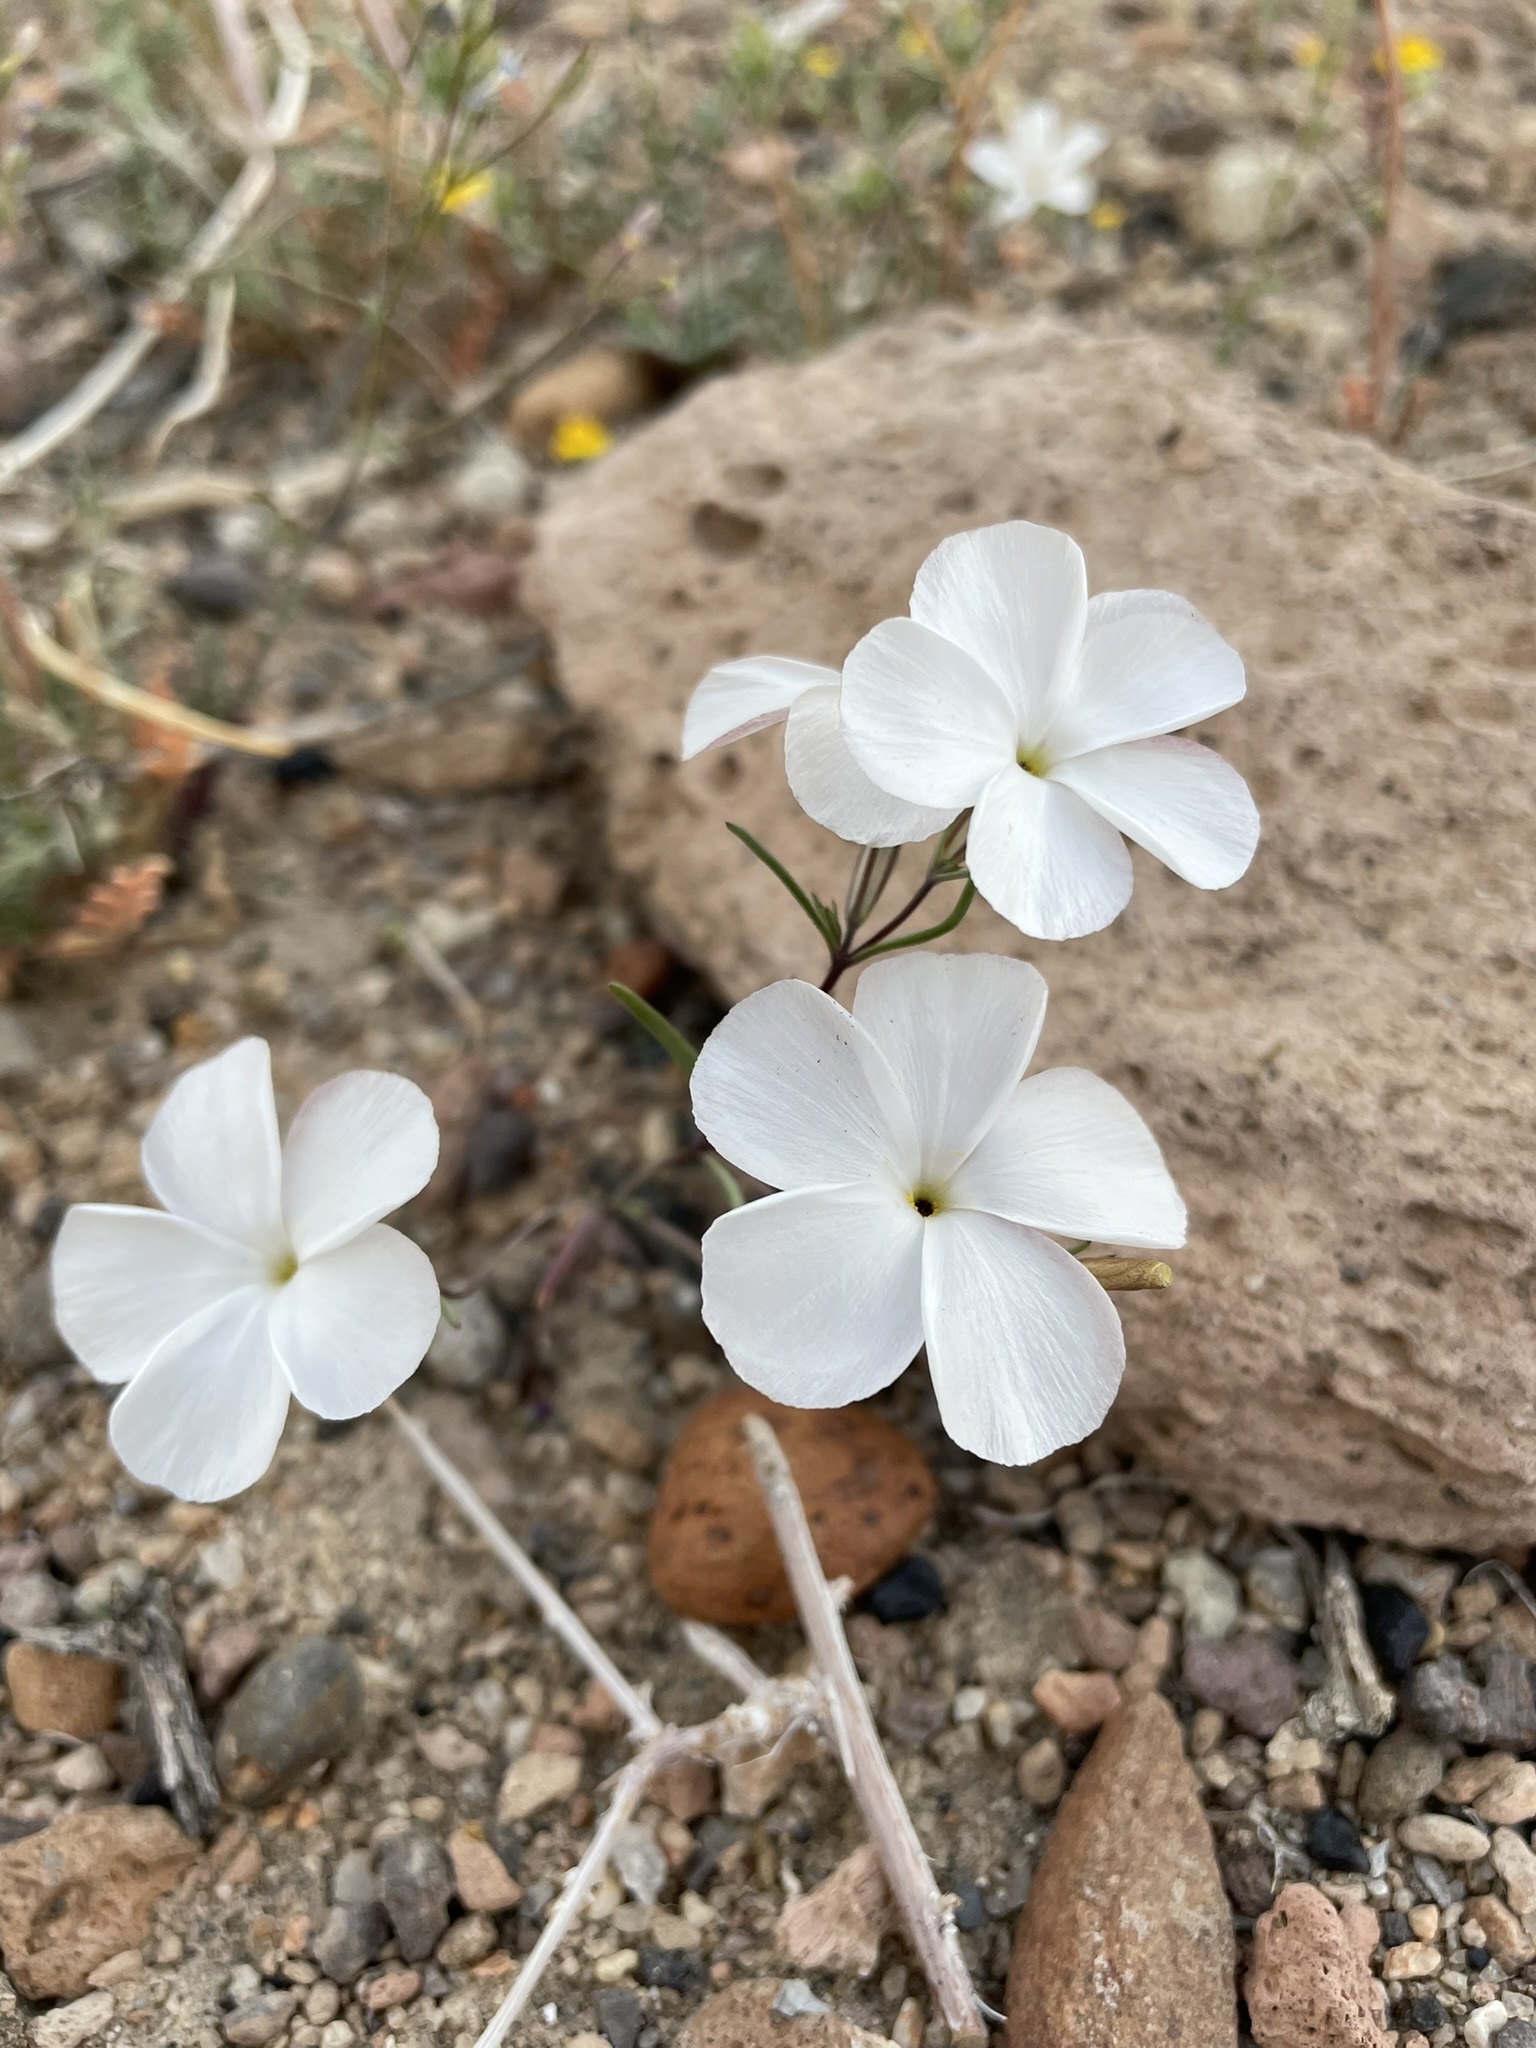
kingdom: Plantae
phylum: Tracheophyta
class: Magnoliopsida
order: Ericales
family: Polemoniaceae
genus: Linanthus
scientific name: Linanthus dichotomus
